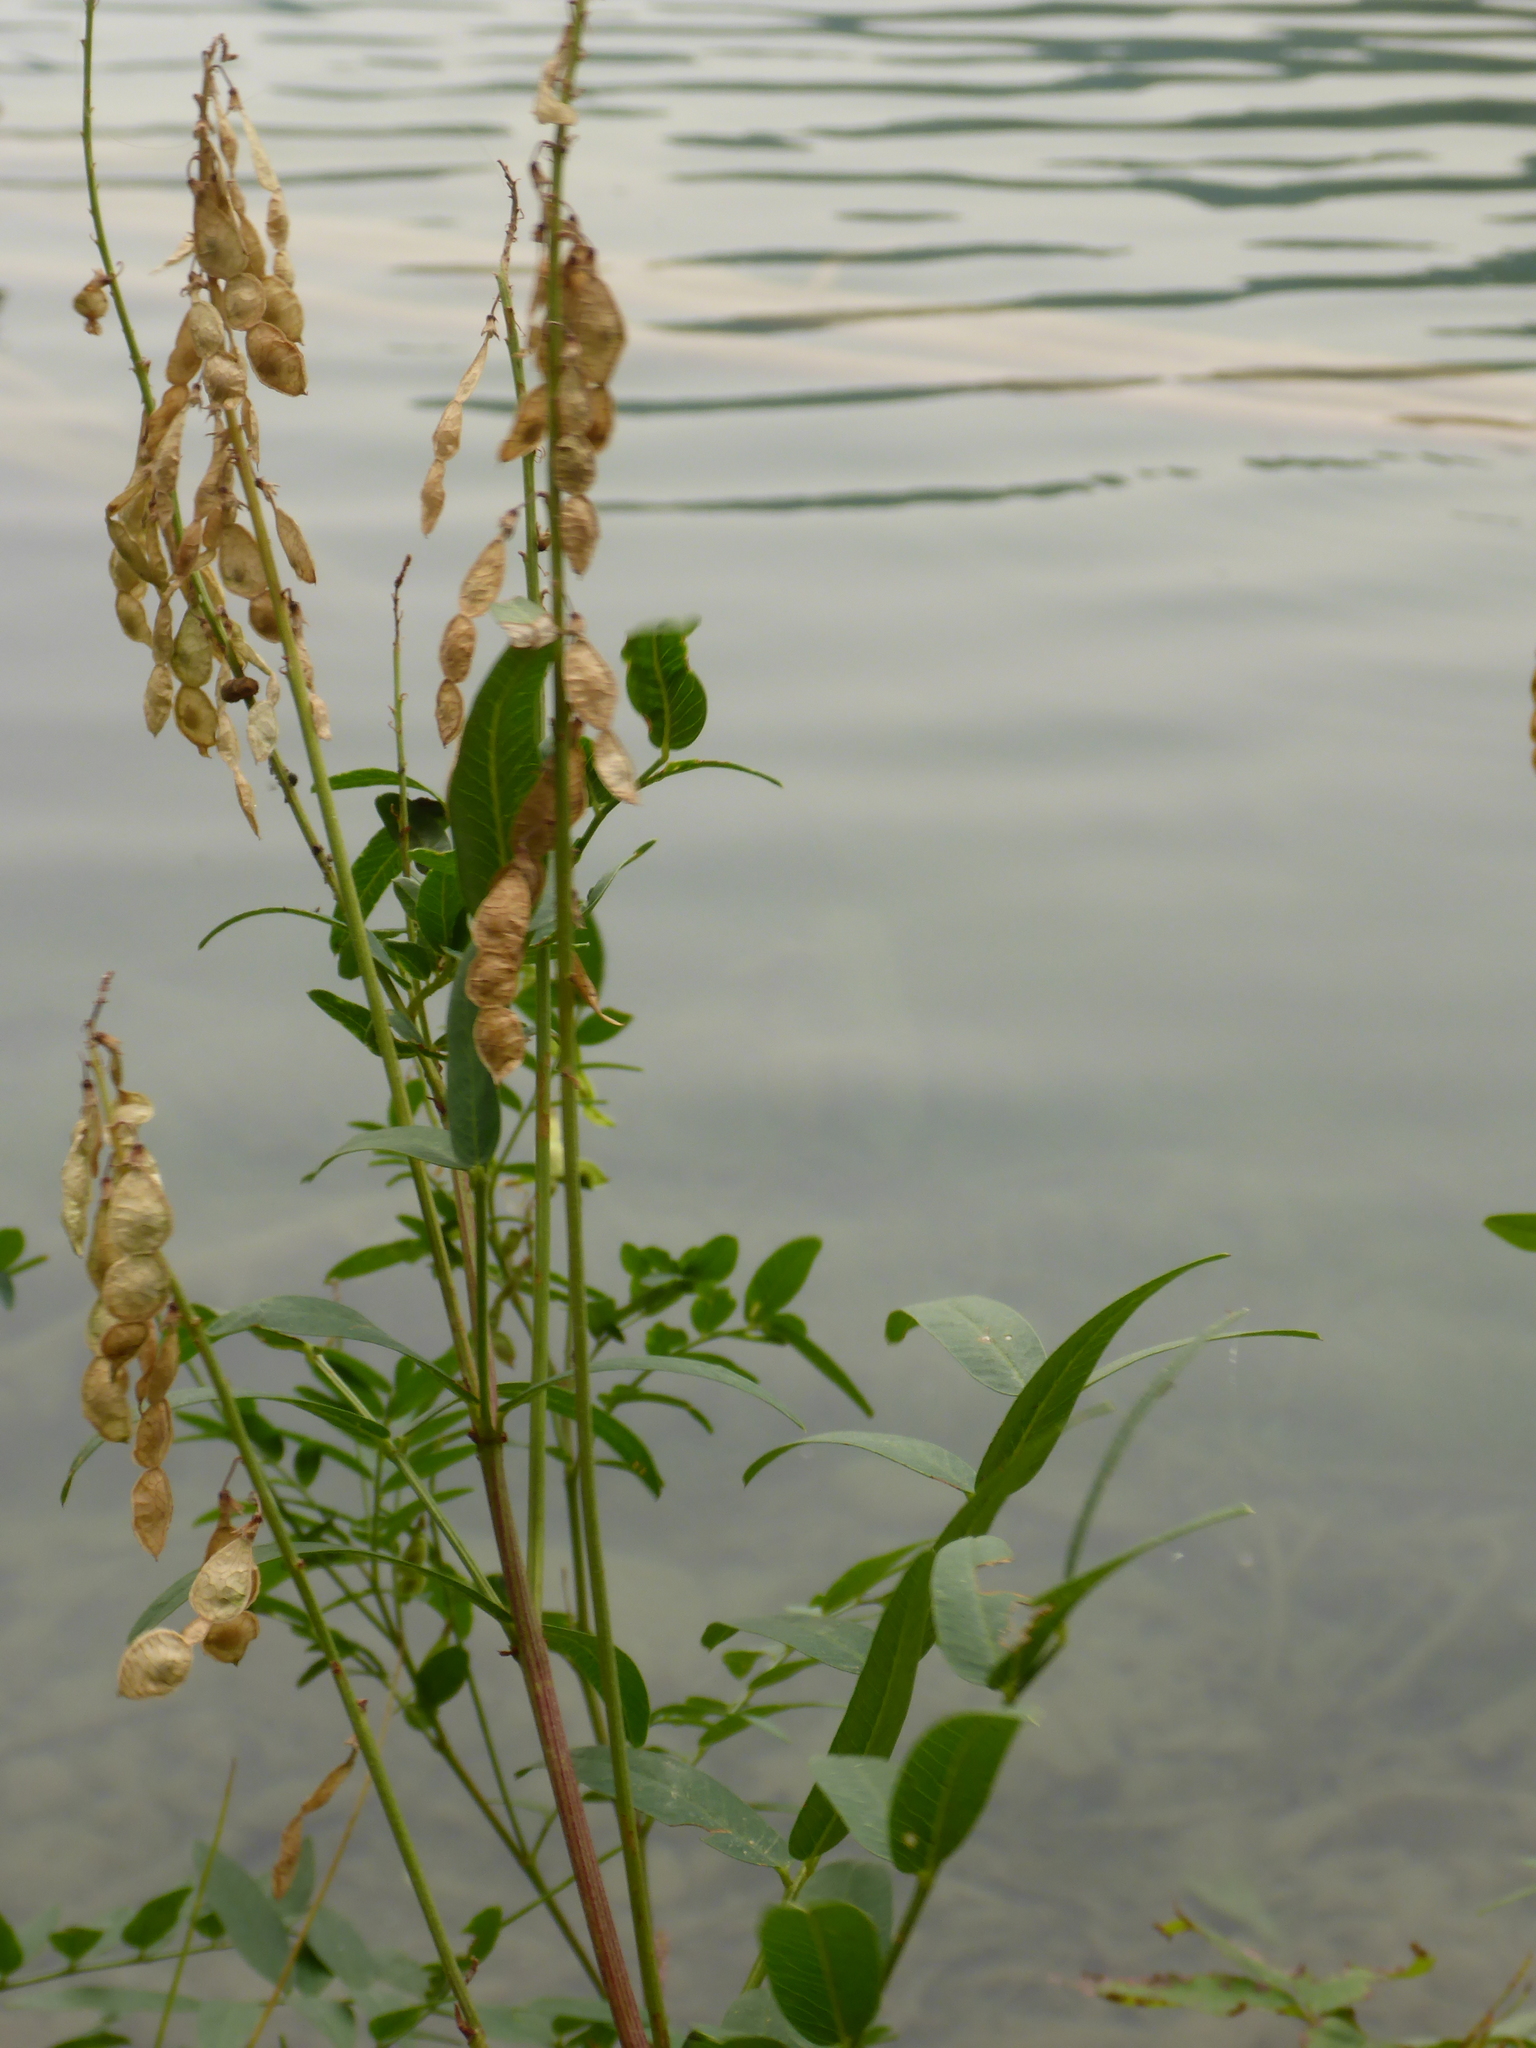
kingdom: Plantae
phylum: Tracheophyta
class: Magnoliopsida
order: Fabales
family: Fabaceae
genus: Hedysarum
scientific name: Hedysarum sulphurescens
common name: Sulphur hedysarum
